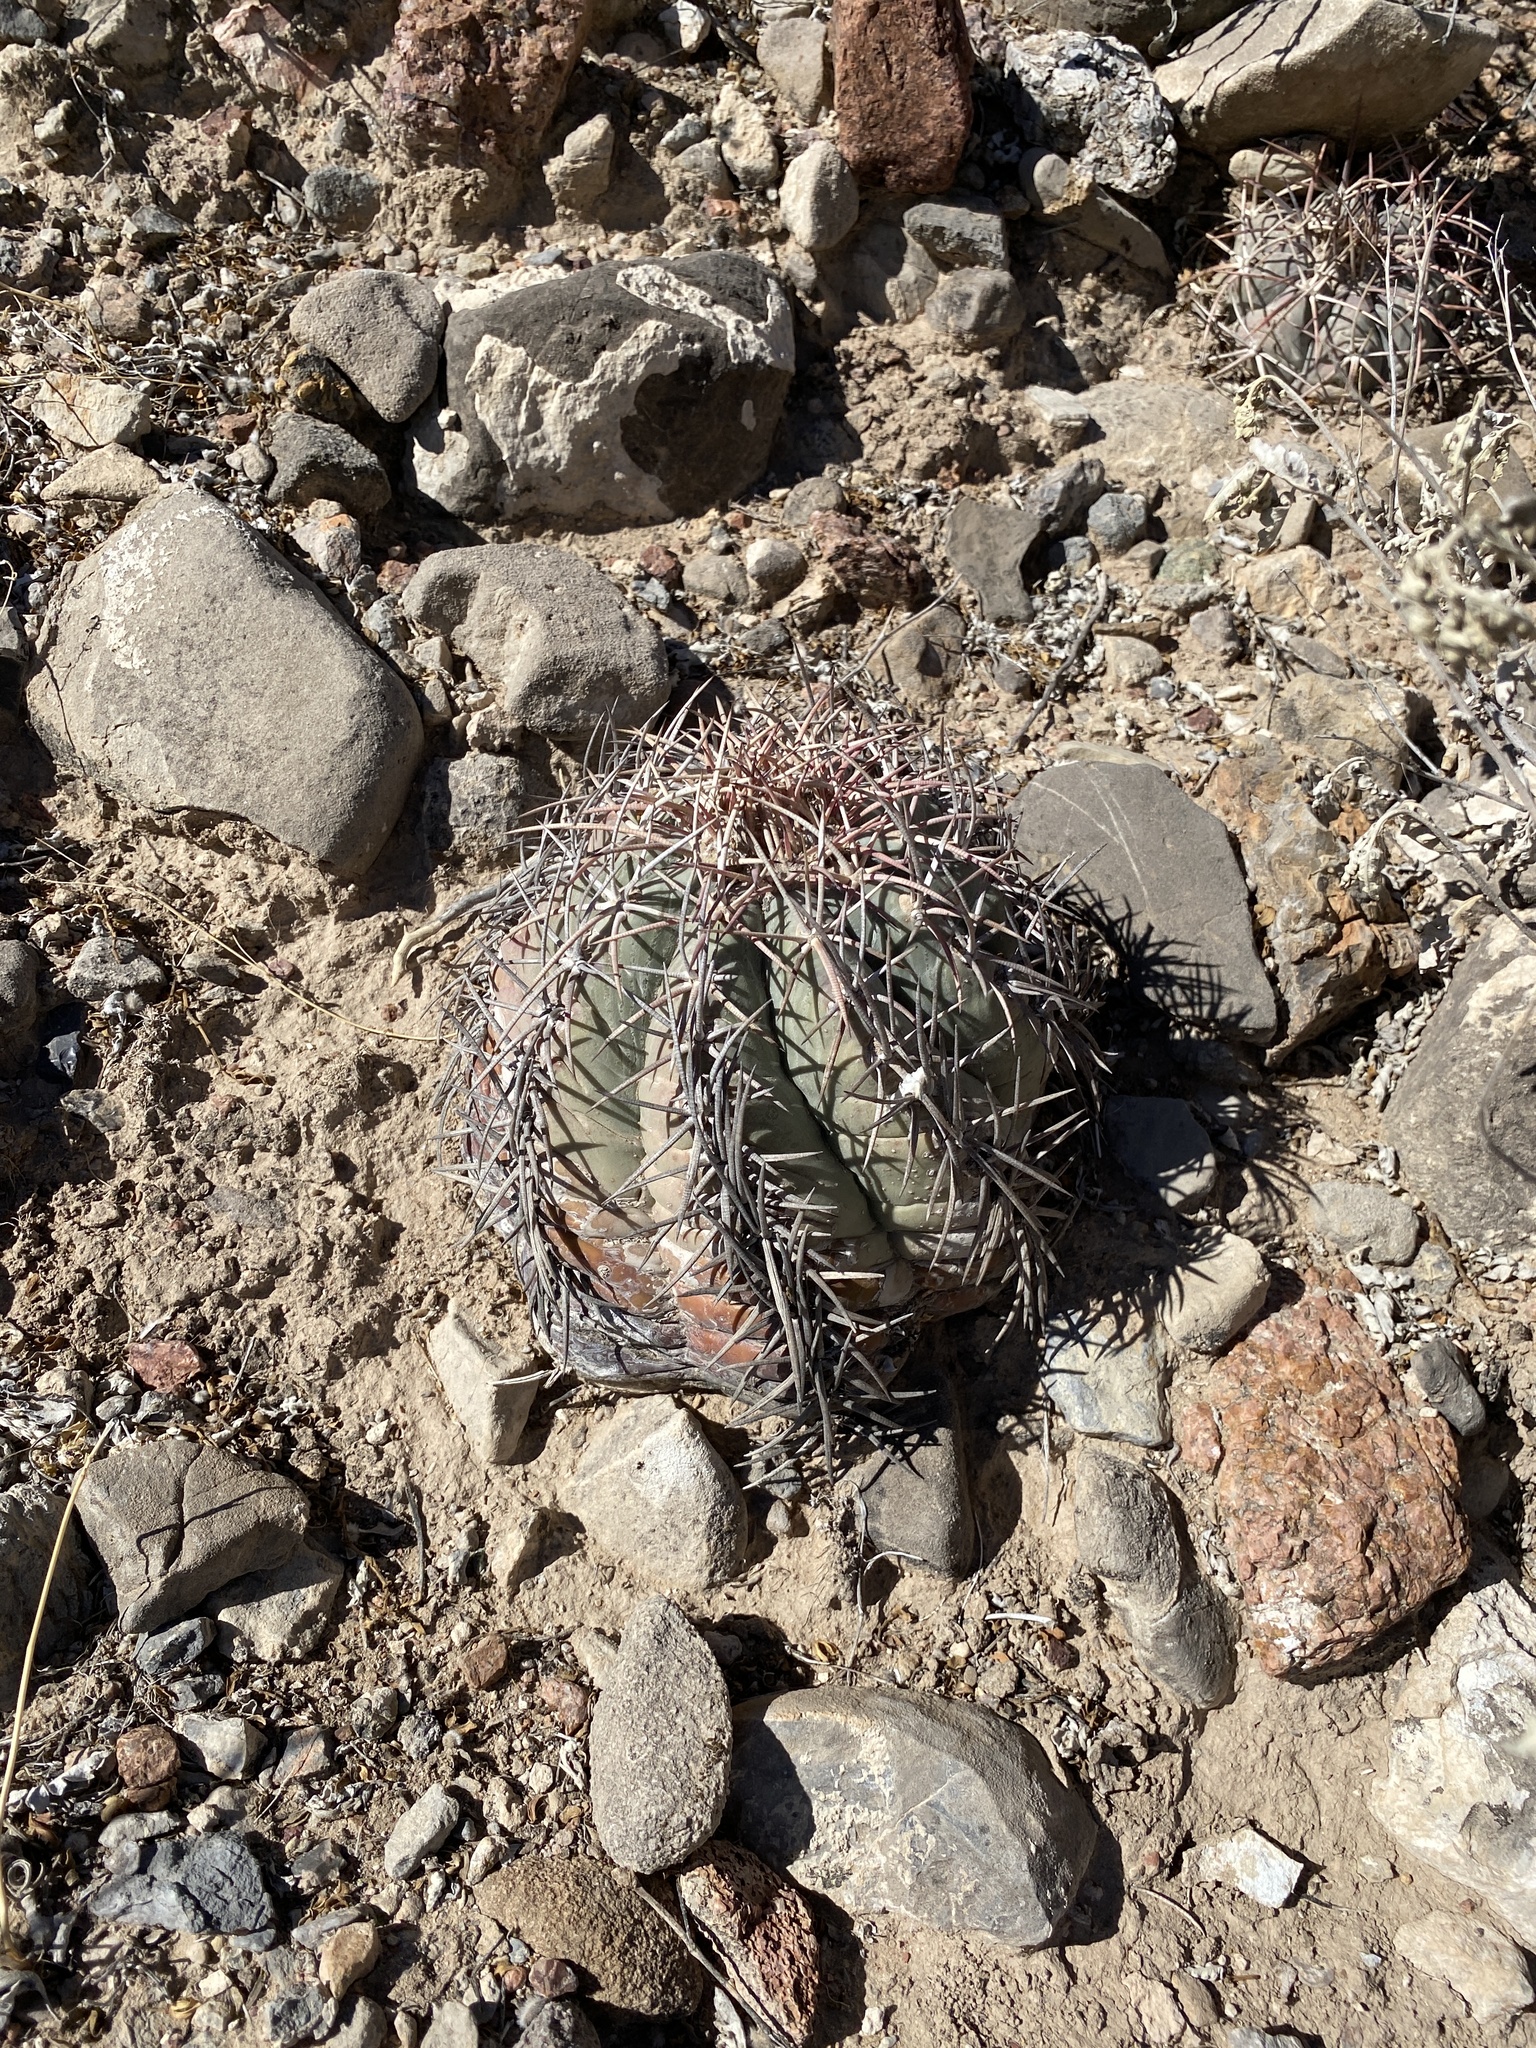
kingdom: Plantae
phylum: Tracheophyta
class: Magnoliopsida
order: Caryophyllales
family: Cactaceae
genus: Echinocactus
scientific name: Echinocactus horizonthalonius
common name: Devilshead
